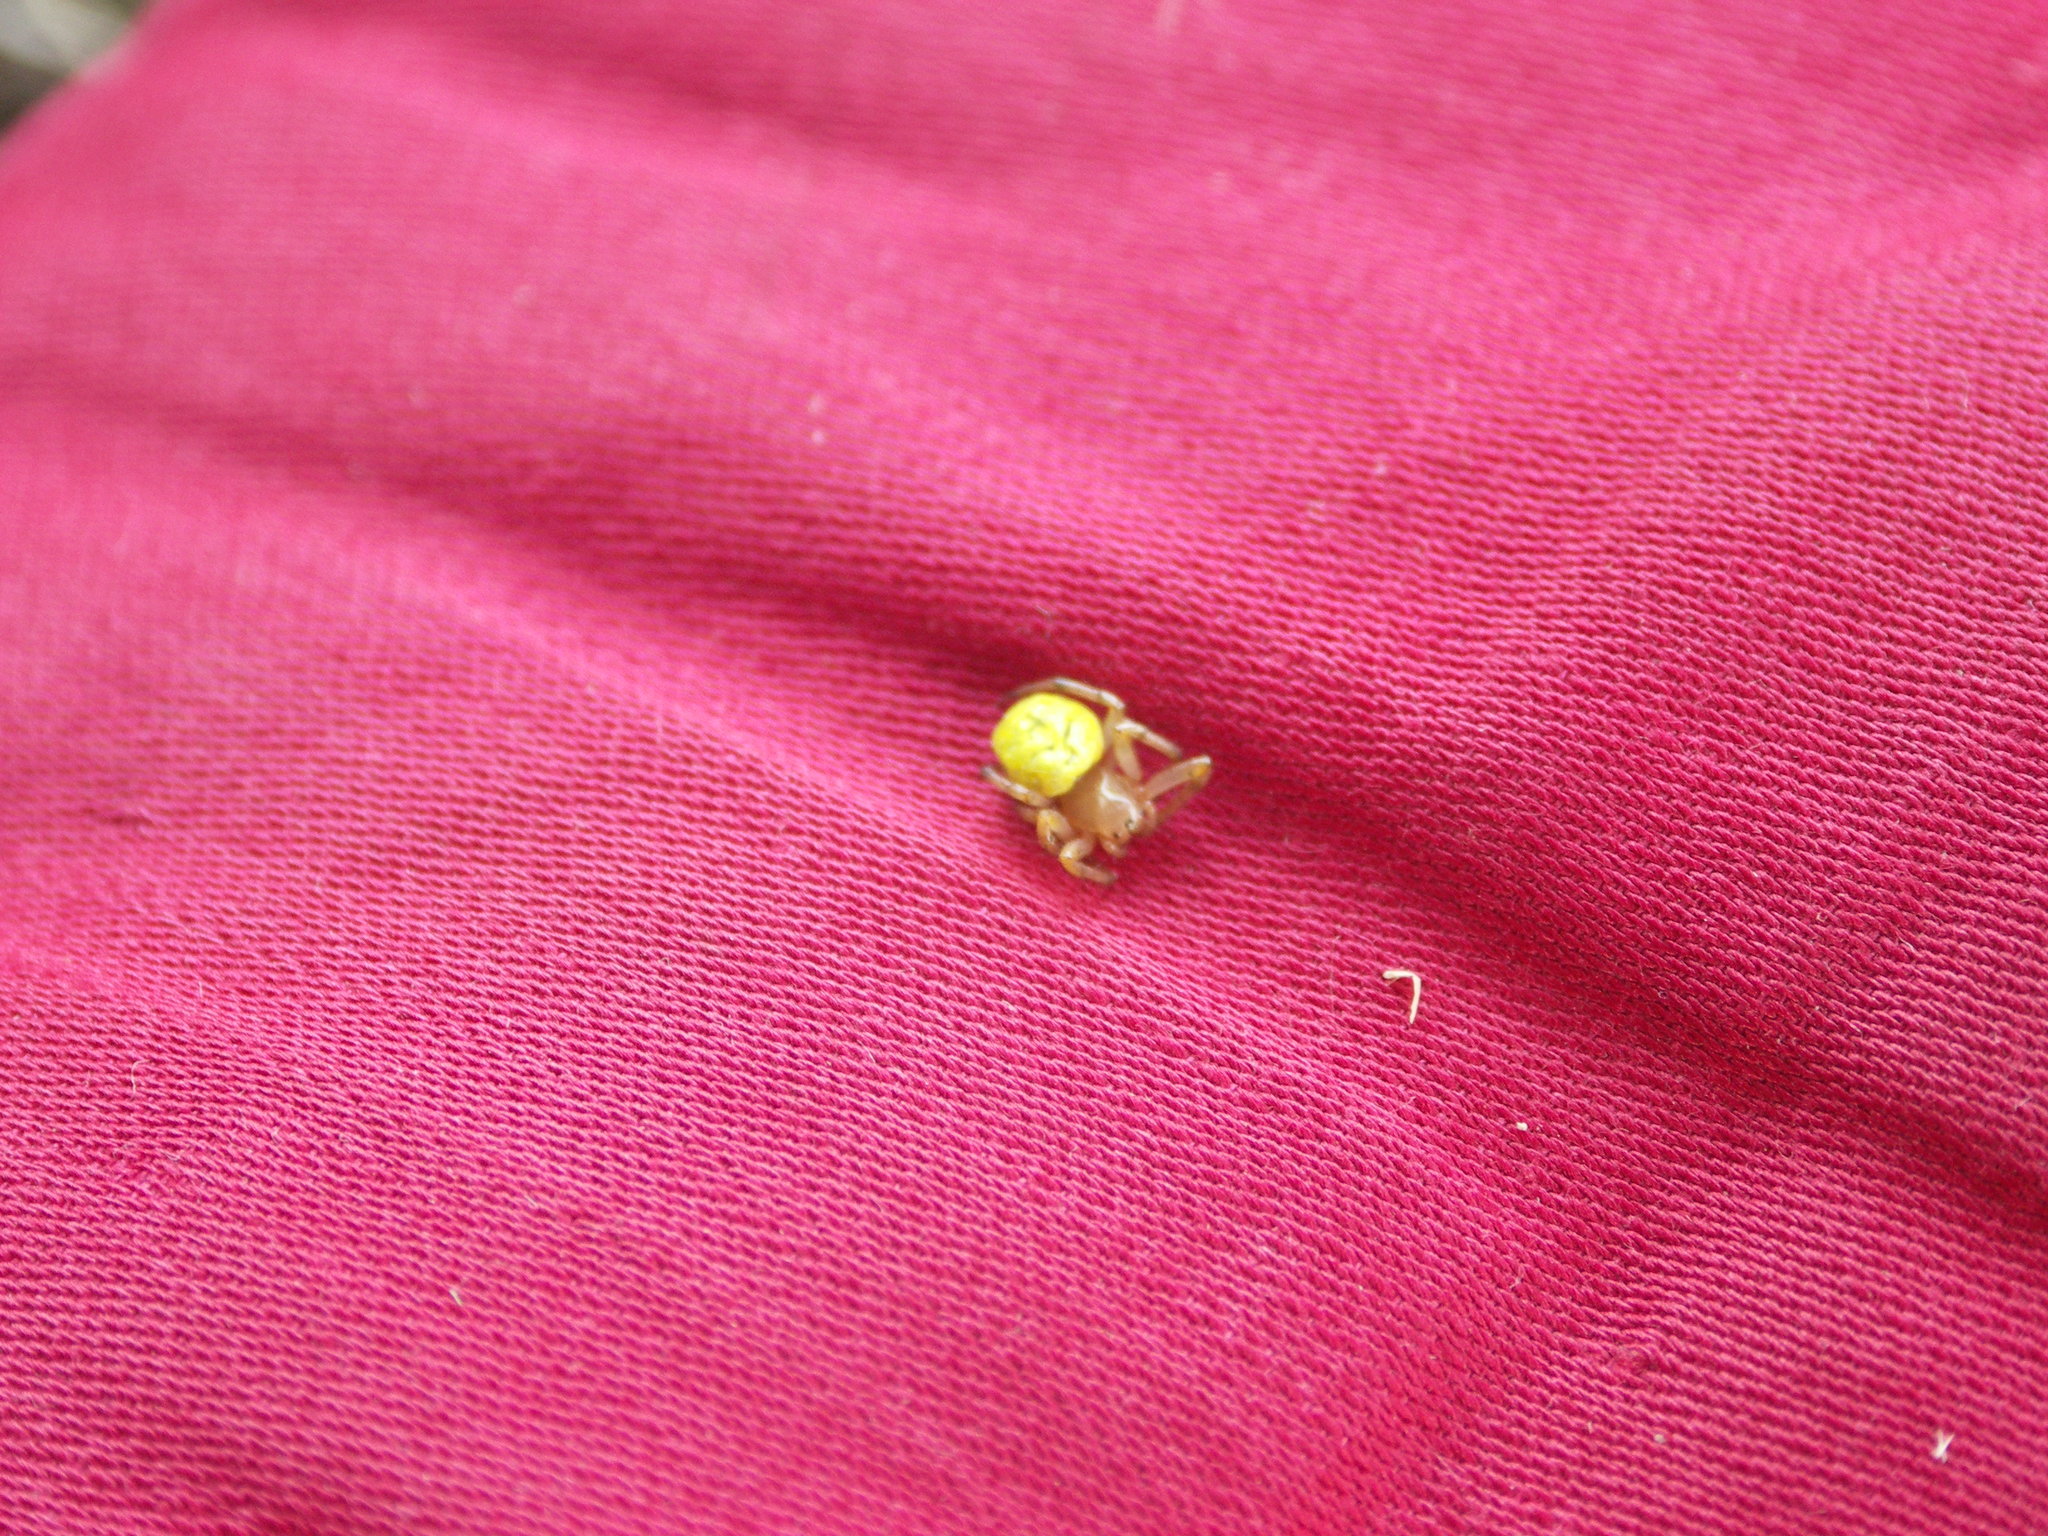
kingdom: Animalia
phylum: Arthropoda
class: Arachnida
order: Araneae
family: Araneidae
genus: Araniella
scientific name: Araniella
